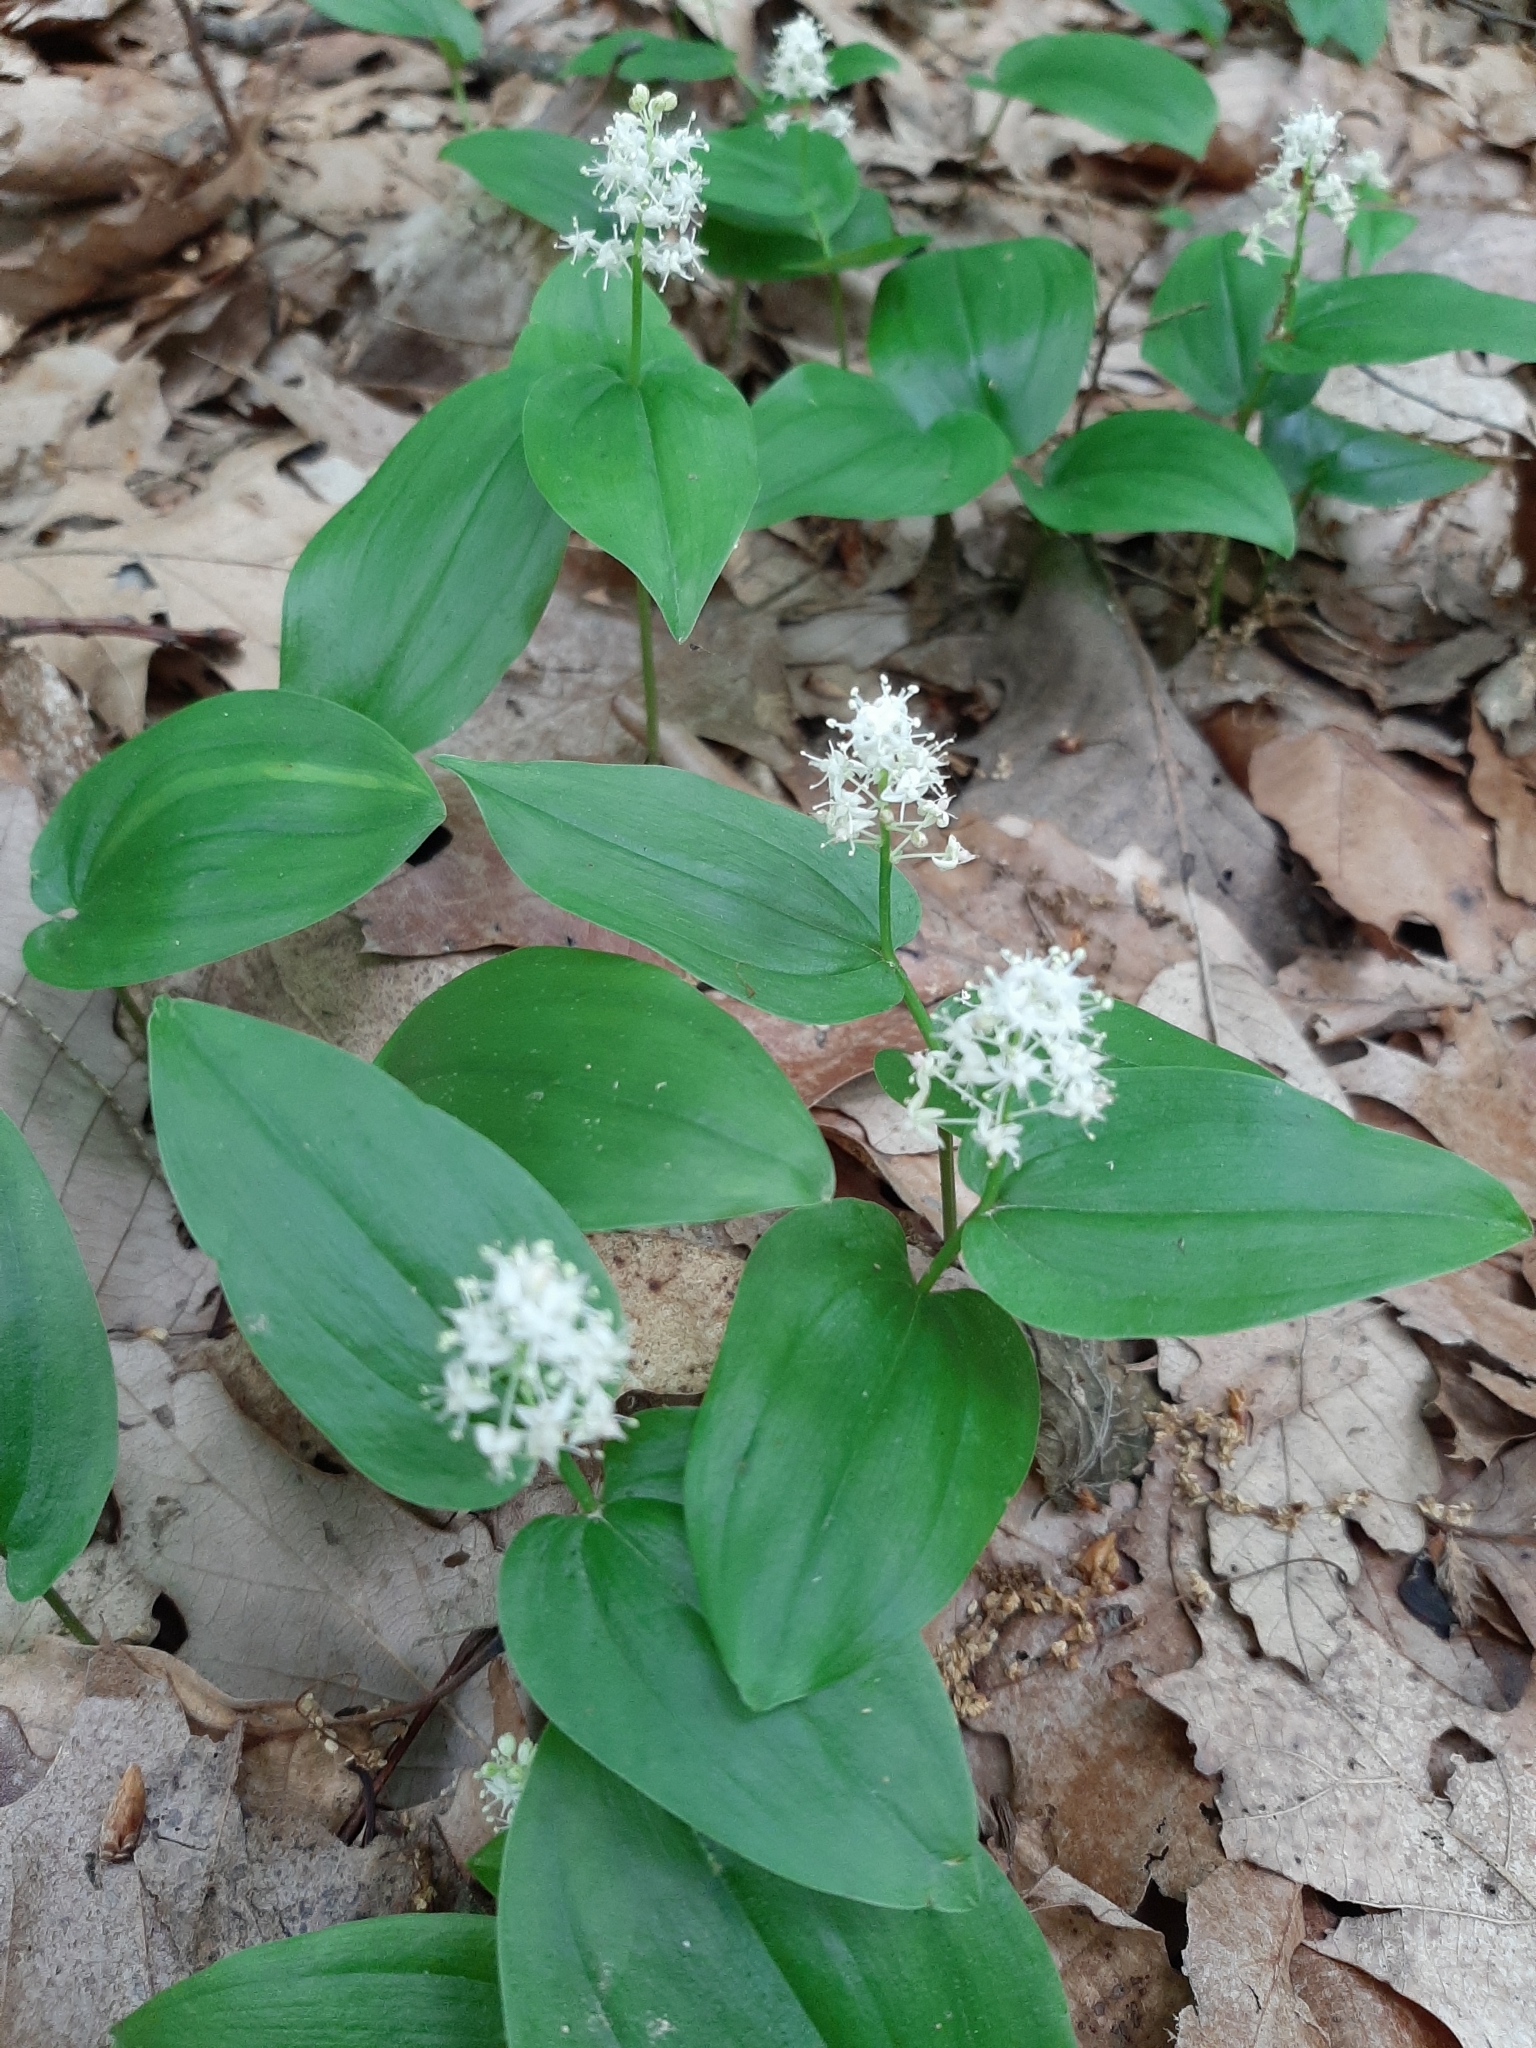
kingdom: Plantae
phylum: Tracheophyta
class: Liliopsida
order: Asparagales
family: Asparagaceae
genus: Maianthemum
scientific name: Maianthemum canadense
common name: False lily-of-the-valley
